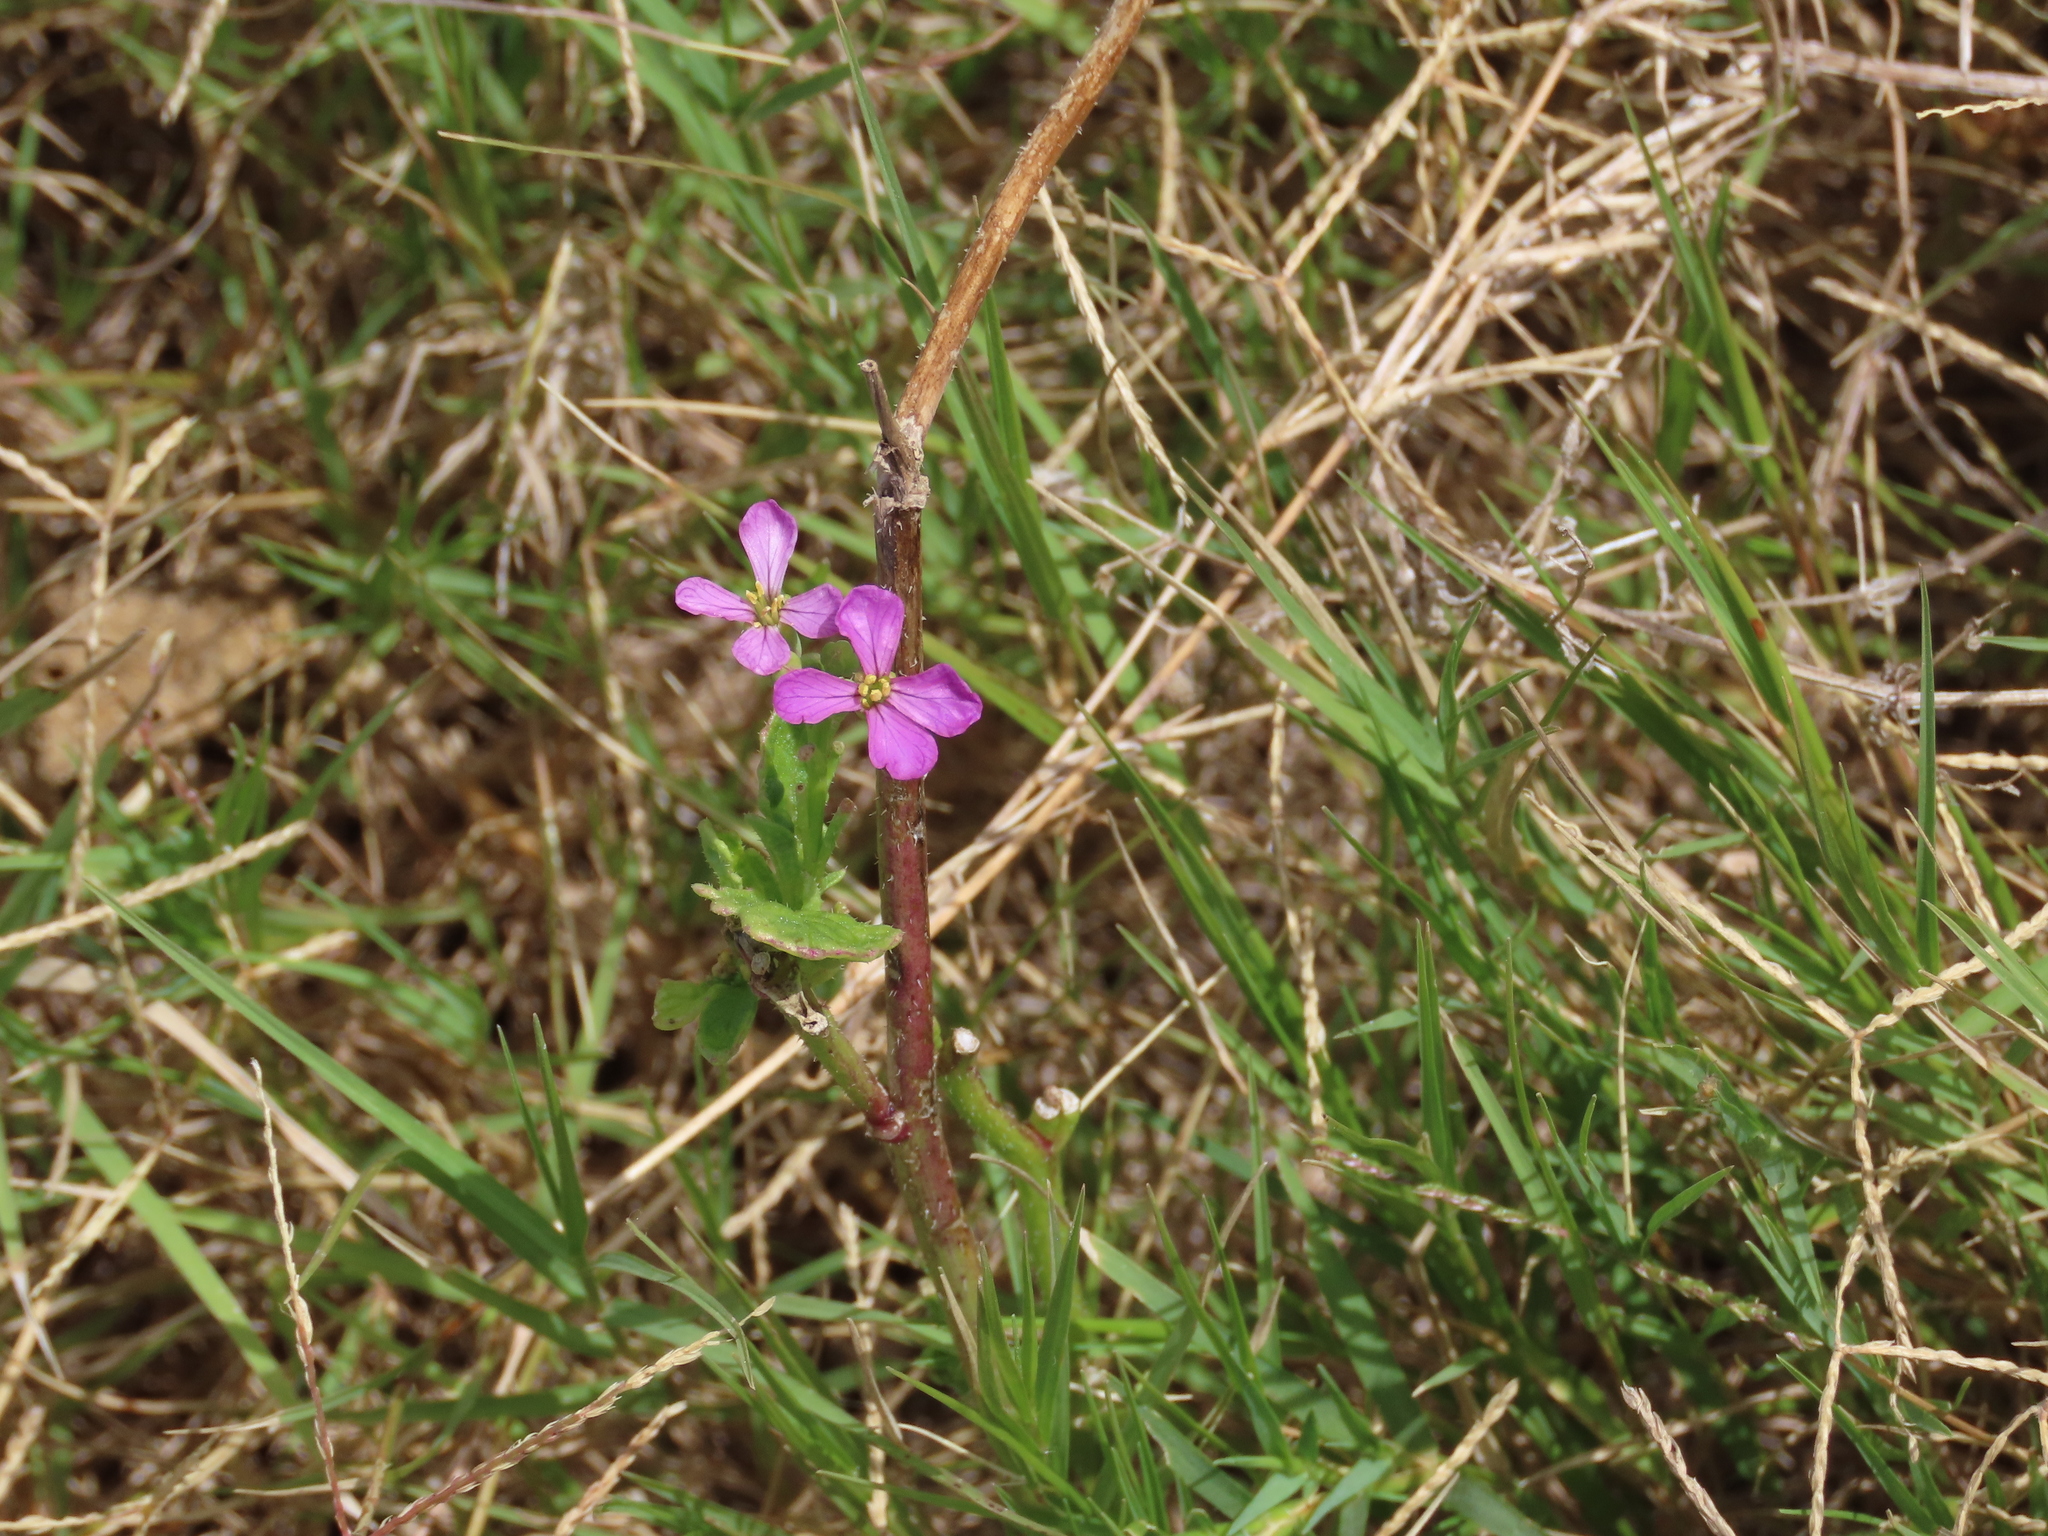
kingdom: Plantae
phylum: Tracheophyta
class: Magnoliopsida
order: Brassicales
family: Brassicaceae
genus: Raphanus
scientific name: Raphanus sativus
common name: Cultivated radish
